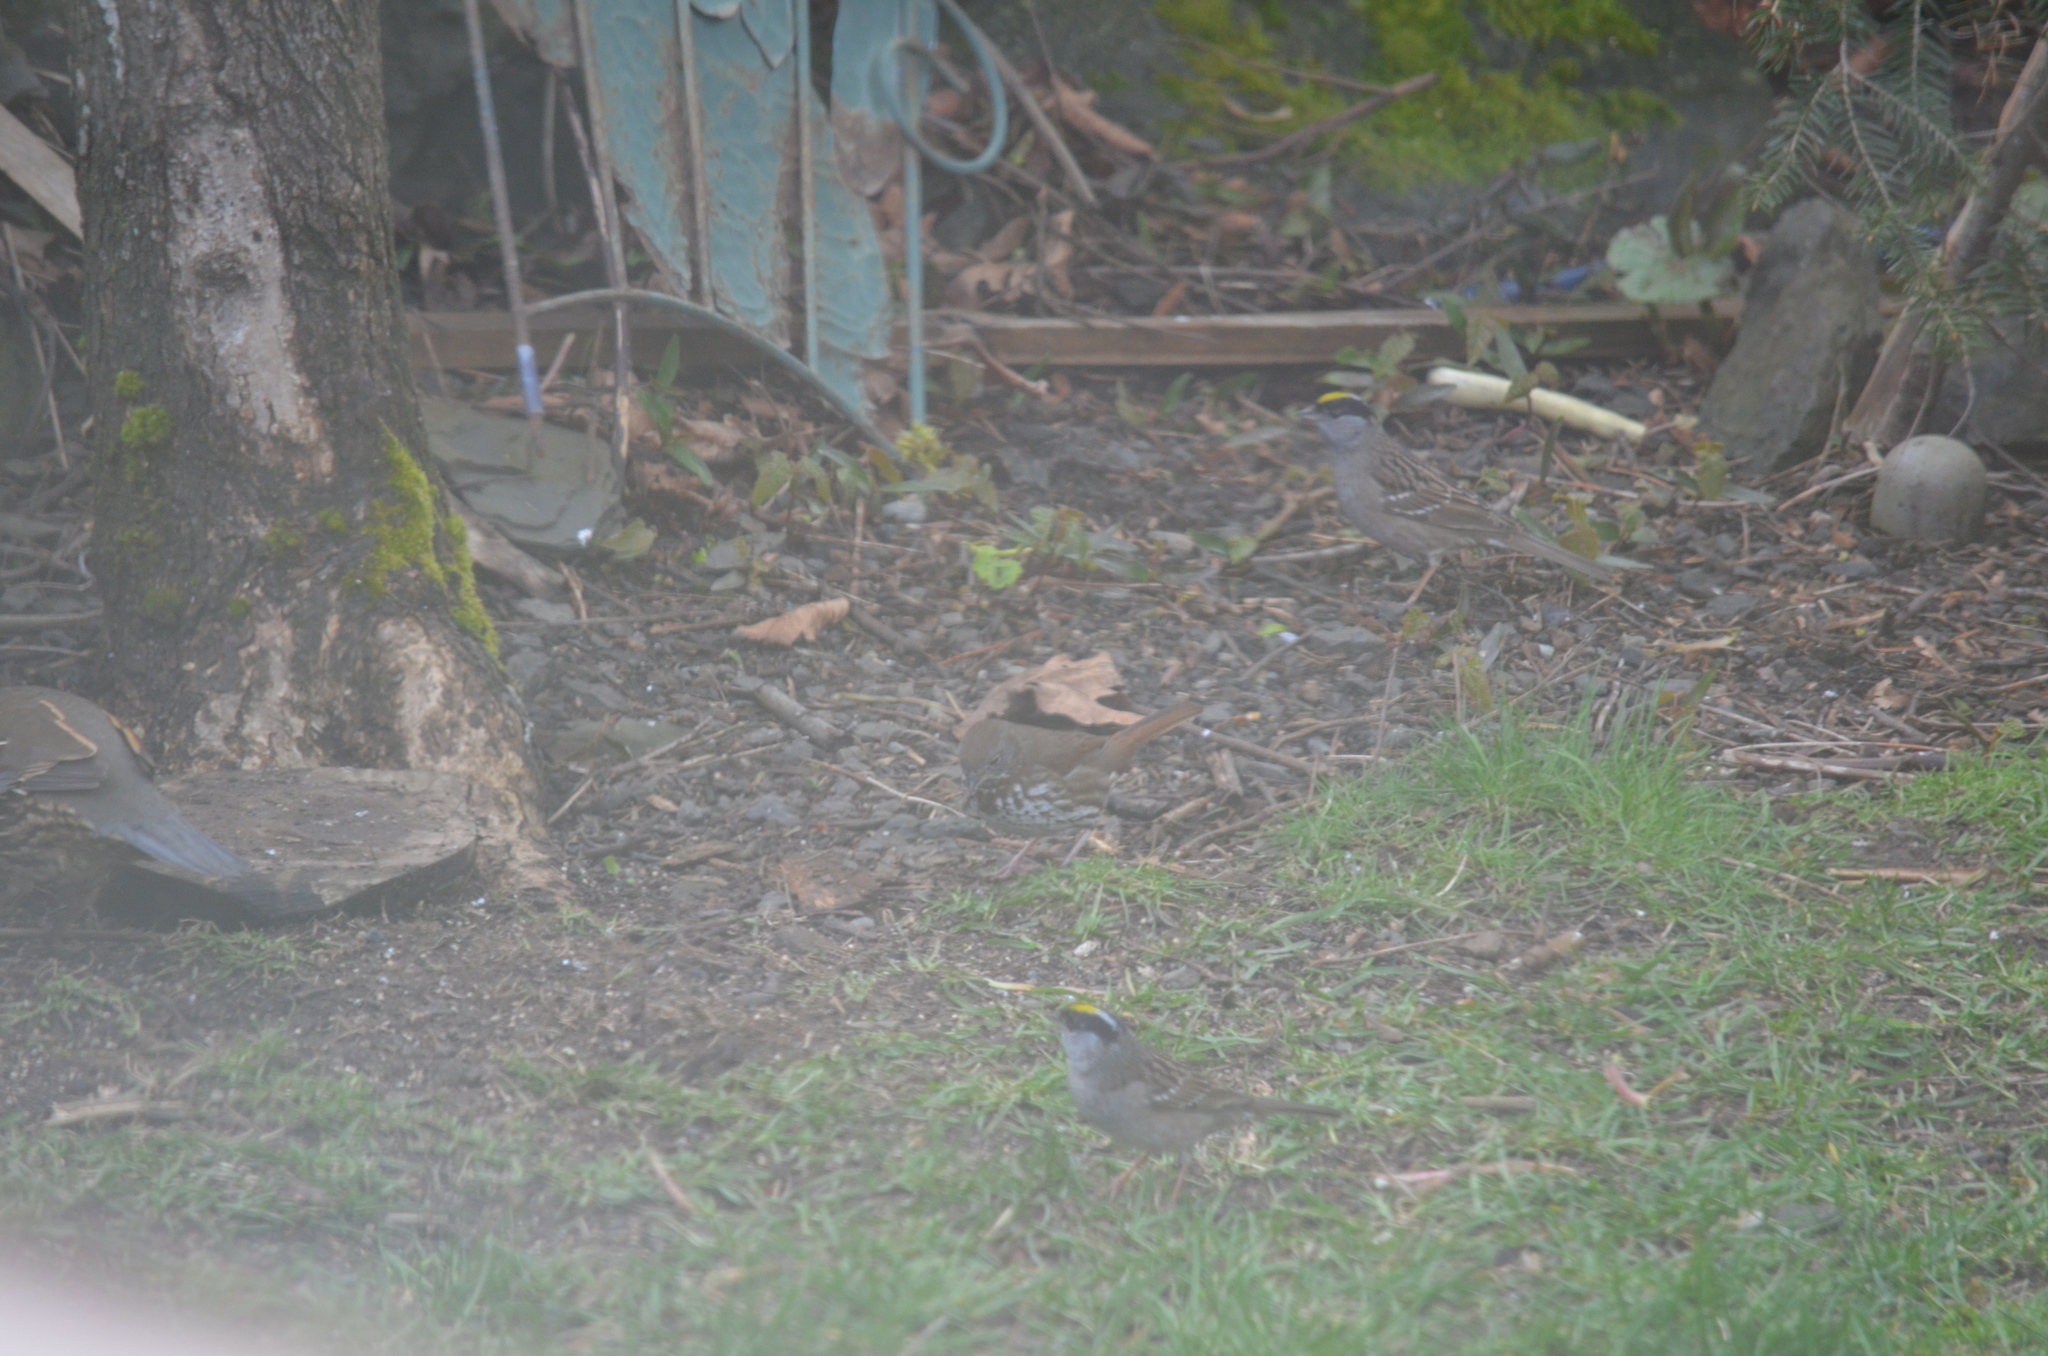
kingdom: Animalia
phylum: Chordata
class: Aves
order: Passeriformes
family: Passerellidae
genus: Passerella
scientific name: Passerella iliaca
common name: Fox sparrow
